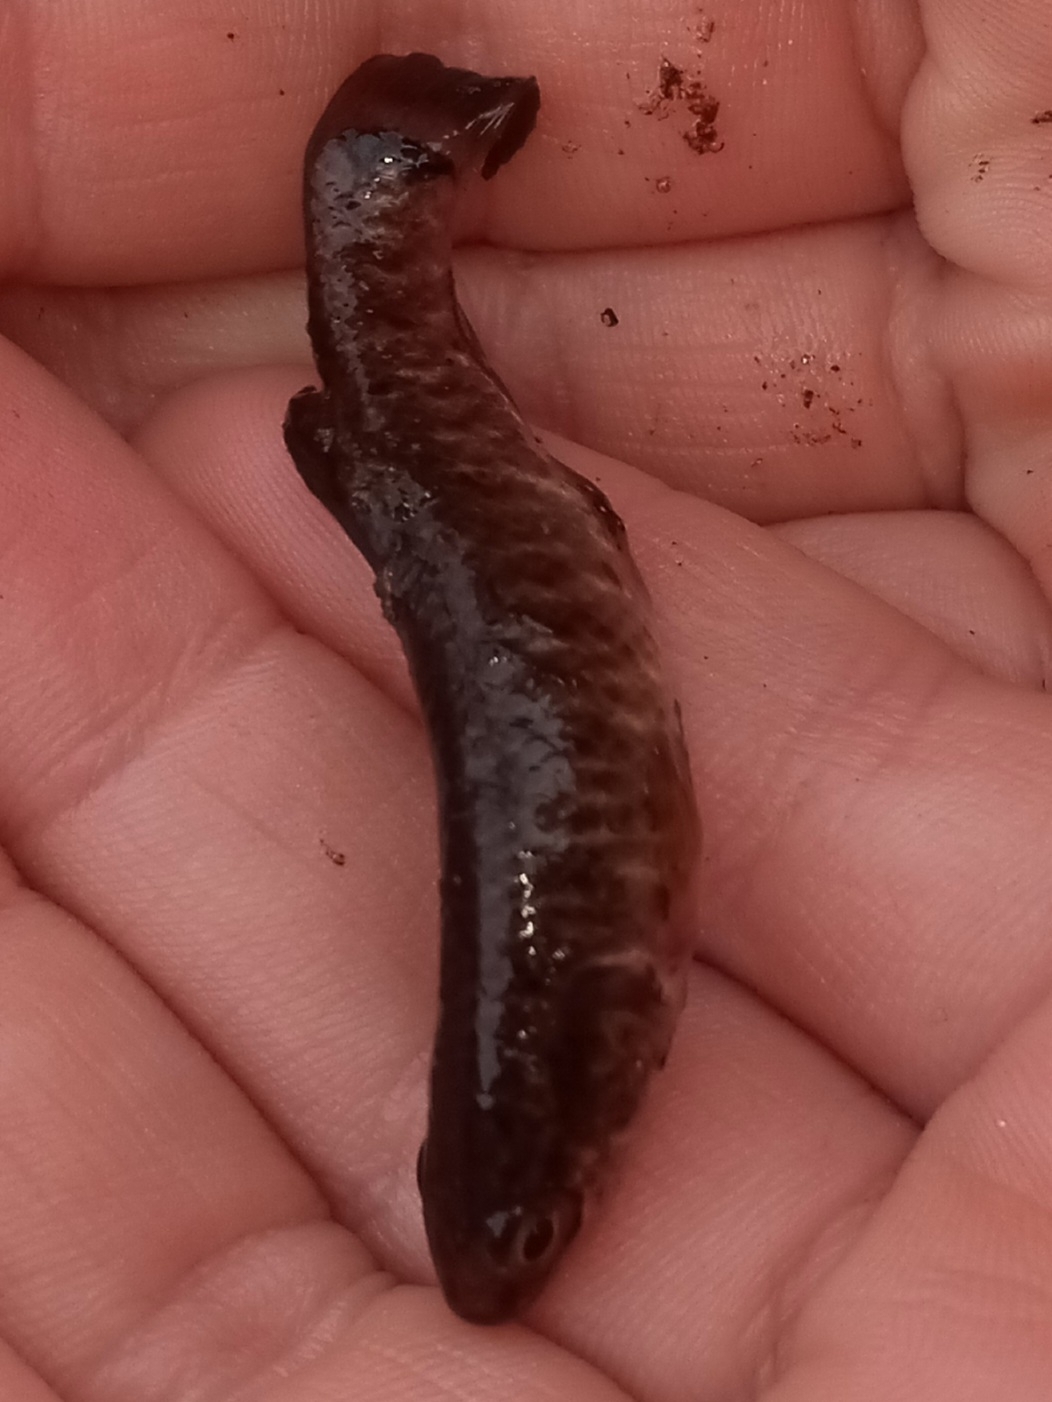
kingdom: Animalia
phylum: Chordata
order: Esociformes
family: Umbridae
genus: Umbra
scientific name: Umbra limi
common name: Central mudminnow
